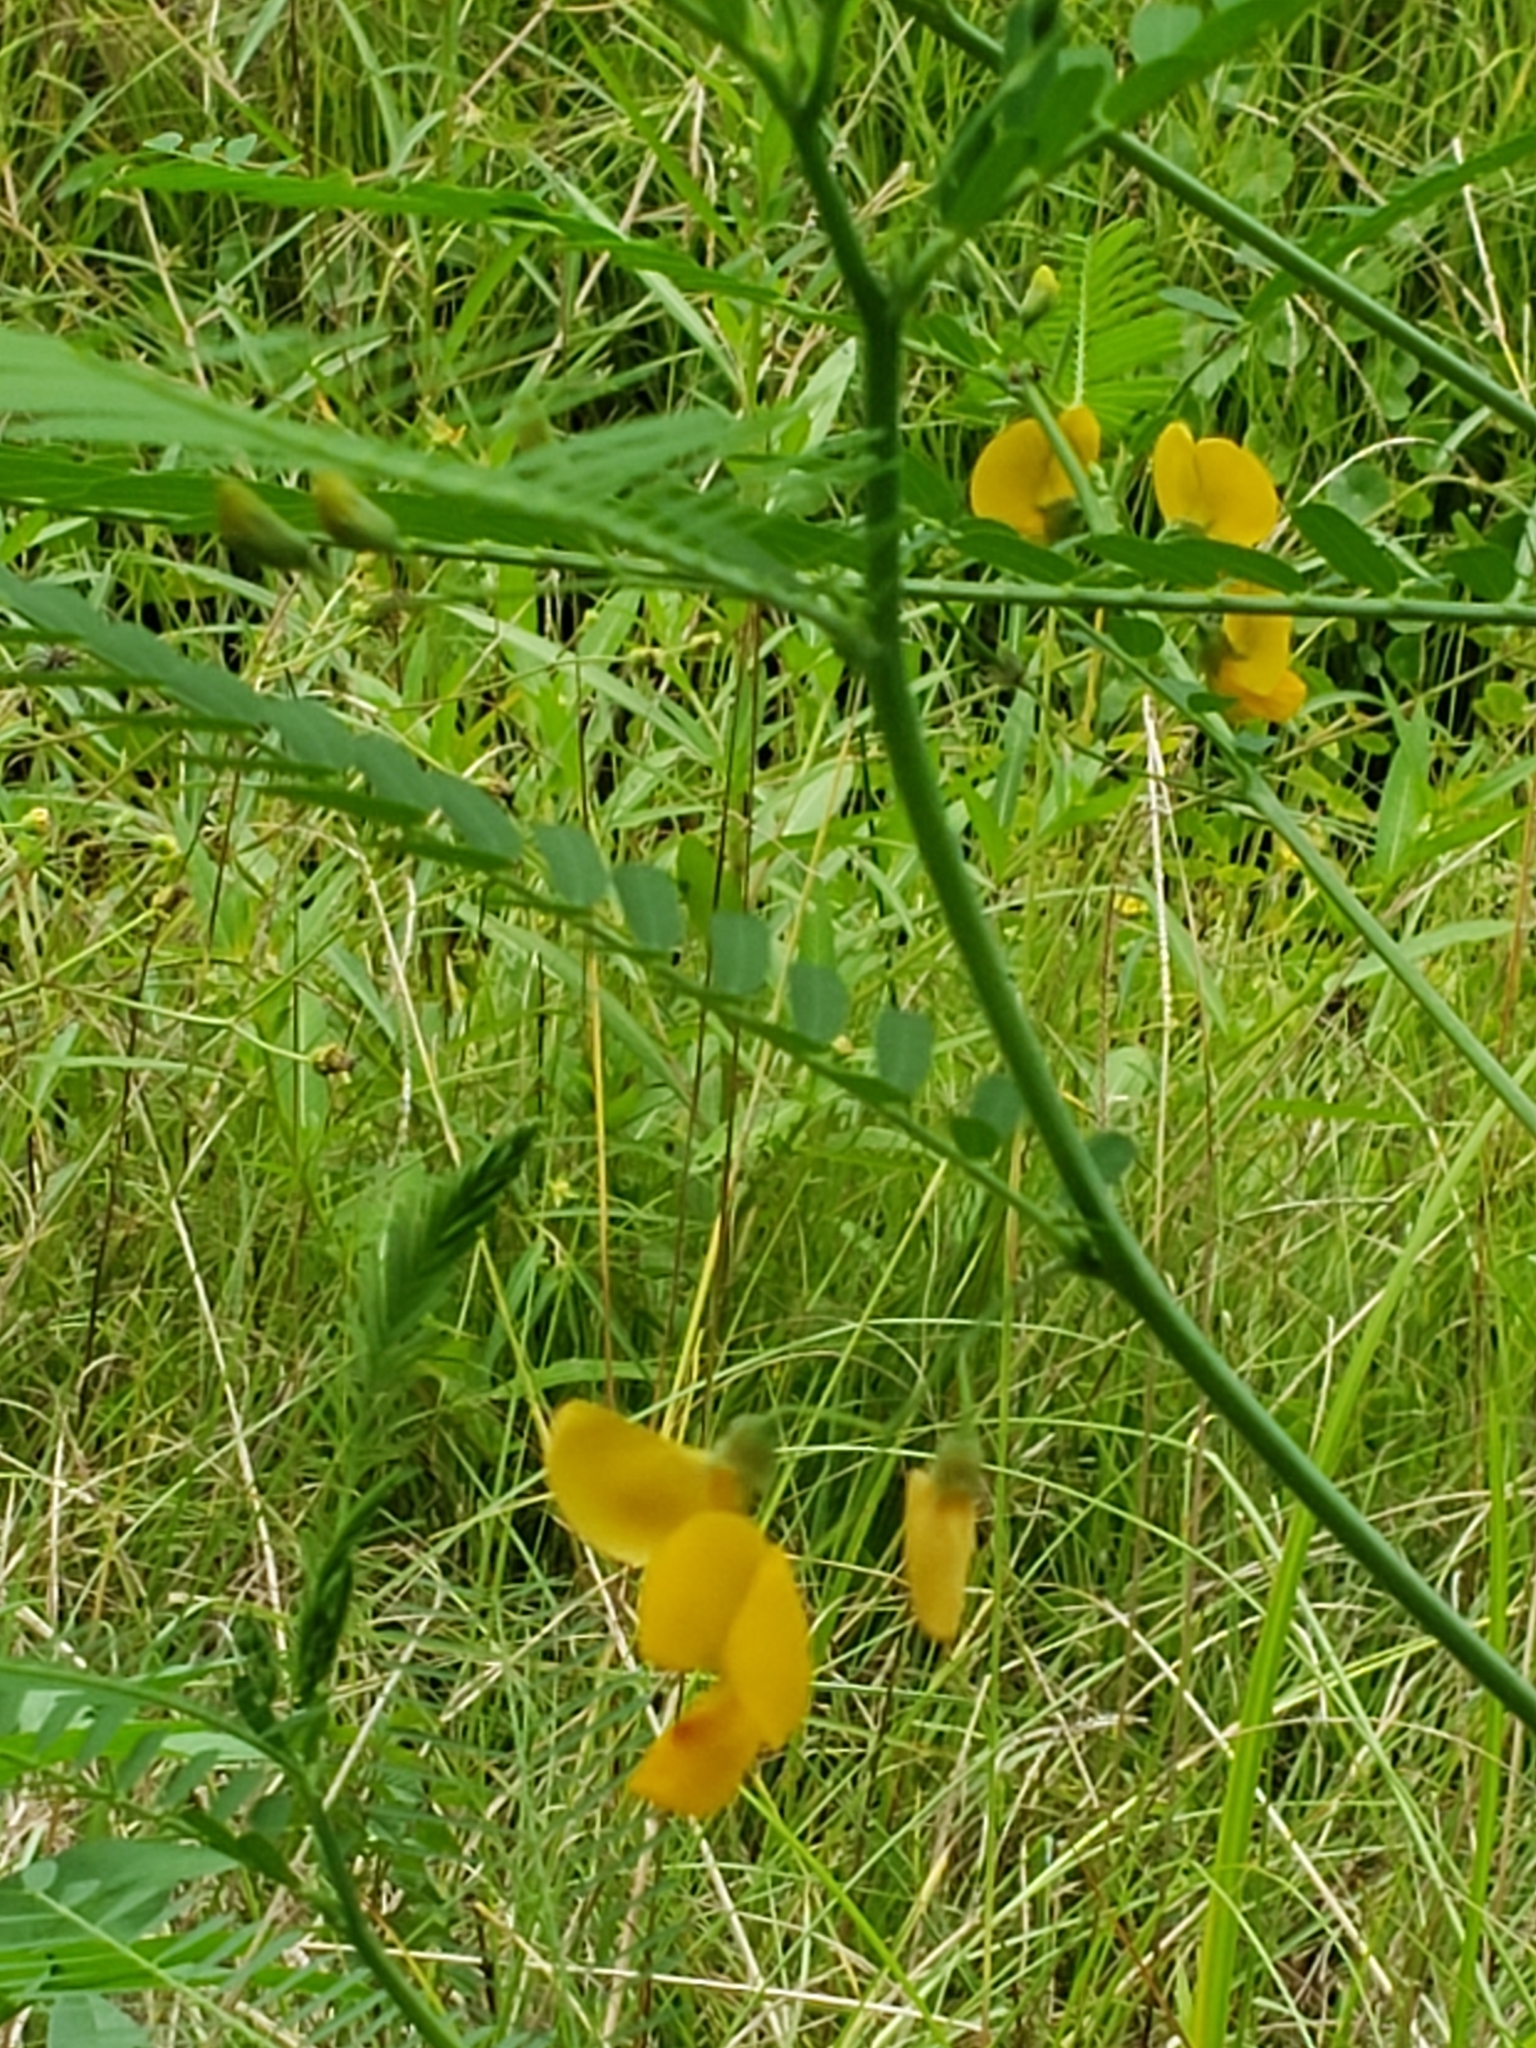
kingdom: Plantae
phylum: Tracheophyta
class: Magnoliopsida
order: Fabales
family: Fabaceae
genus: Sesbania
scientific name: Sesbania herbacea
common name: Bigpod sesbania
